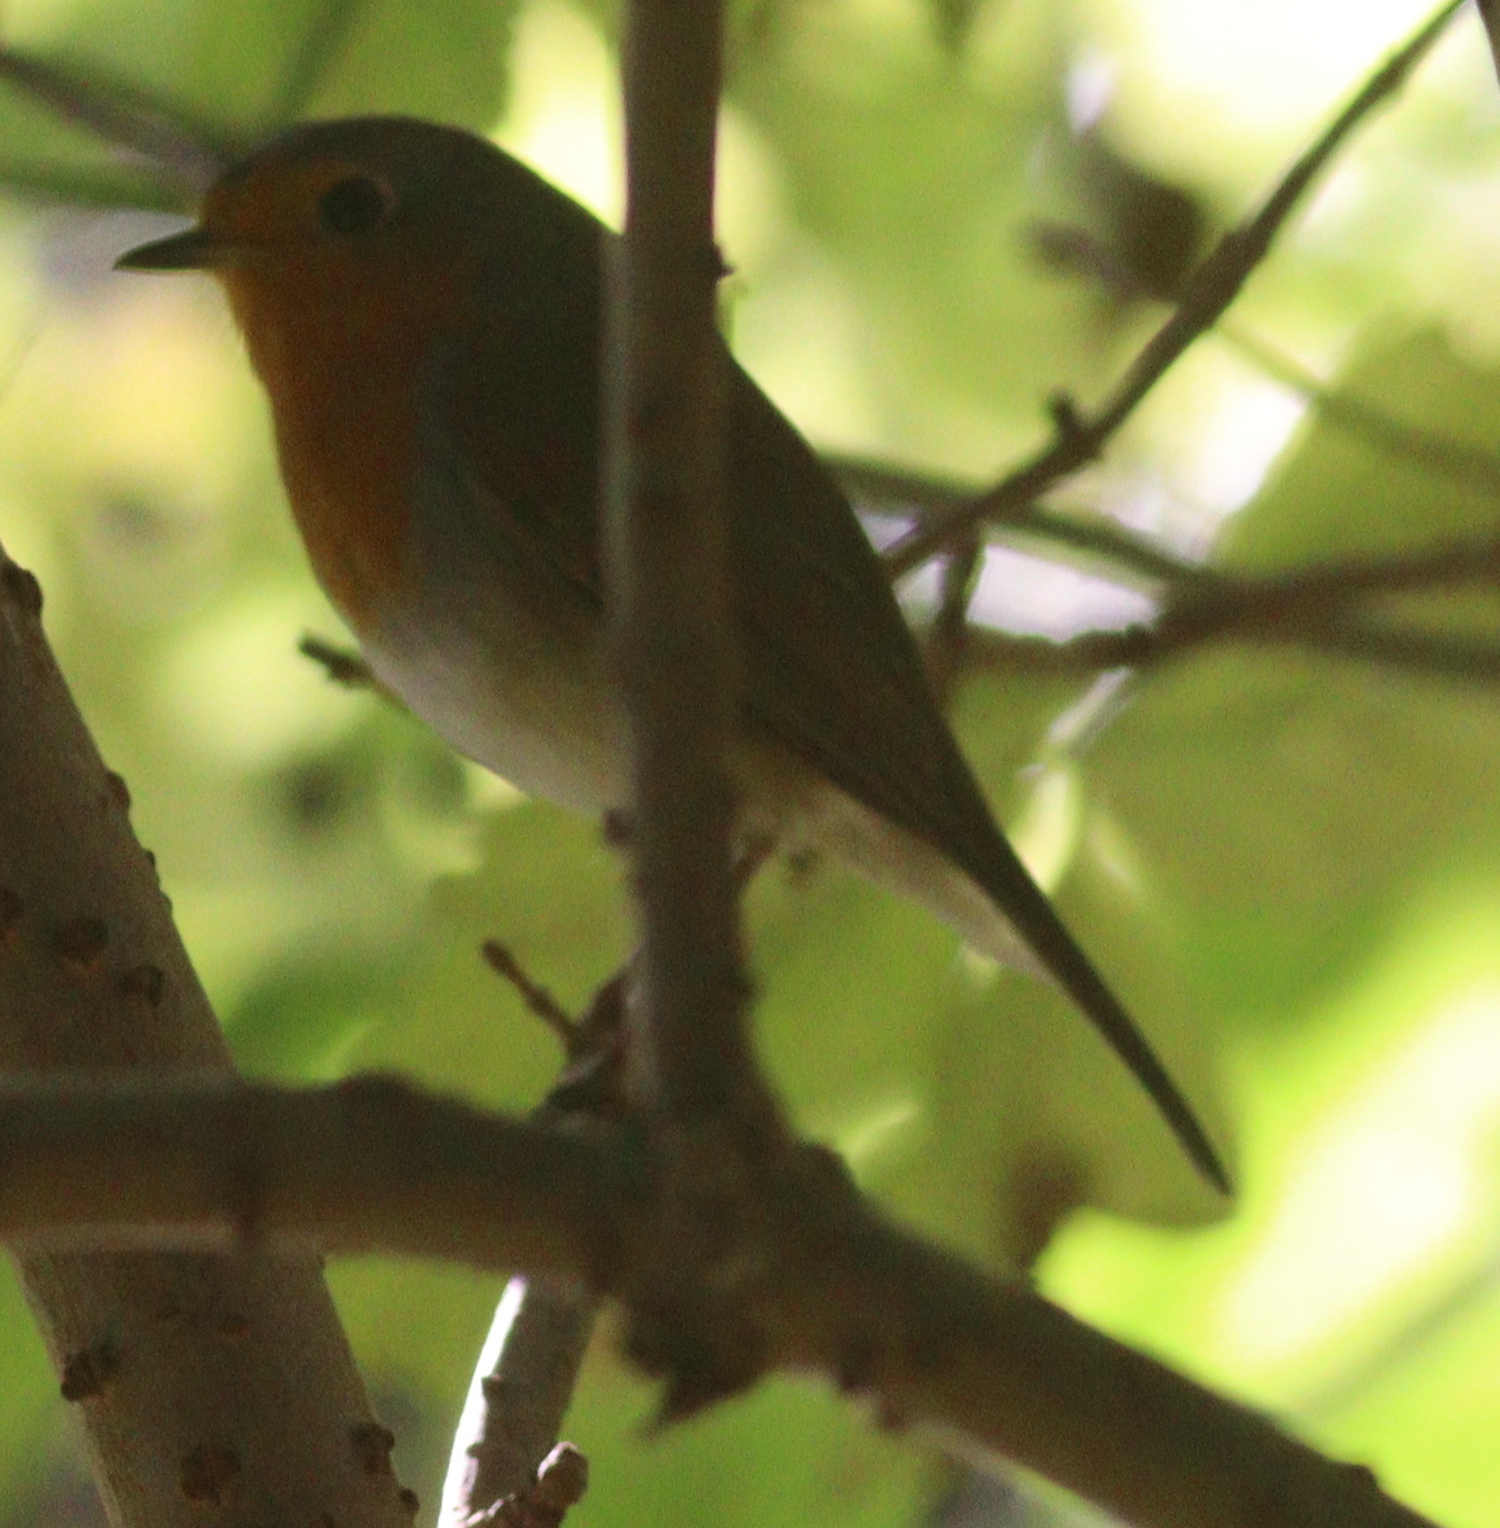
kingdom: Animalia
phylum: Chordata
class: Aves
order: Passeriformes
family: Muscicapidae
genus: Erithacus
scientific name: Erithacus rubecula
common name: European robin
